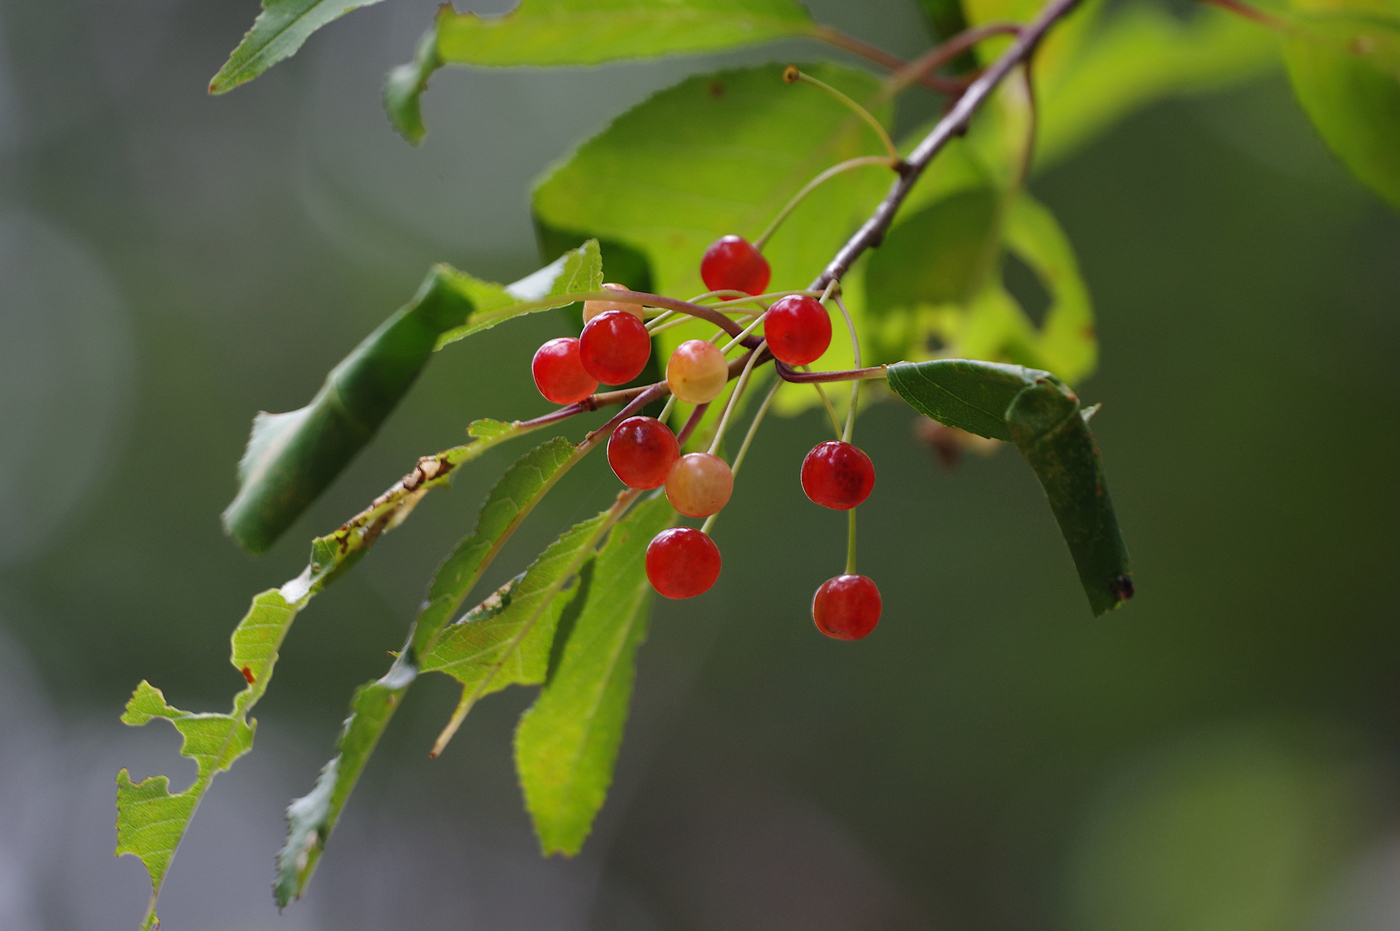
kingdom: Plantae
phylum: Tracheophyta
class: Magnoliopsida
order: Rosales
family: Rosaceae
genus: Prunus
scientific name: Prunus pensylvanica
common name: Pin cherry
